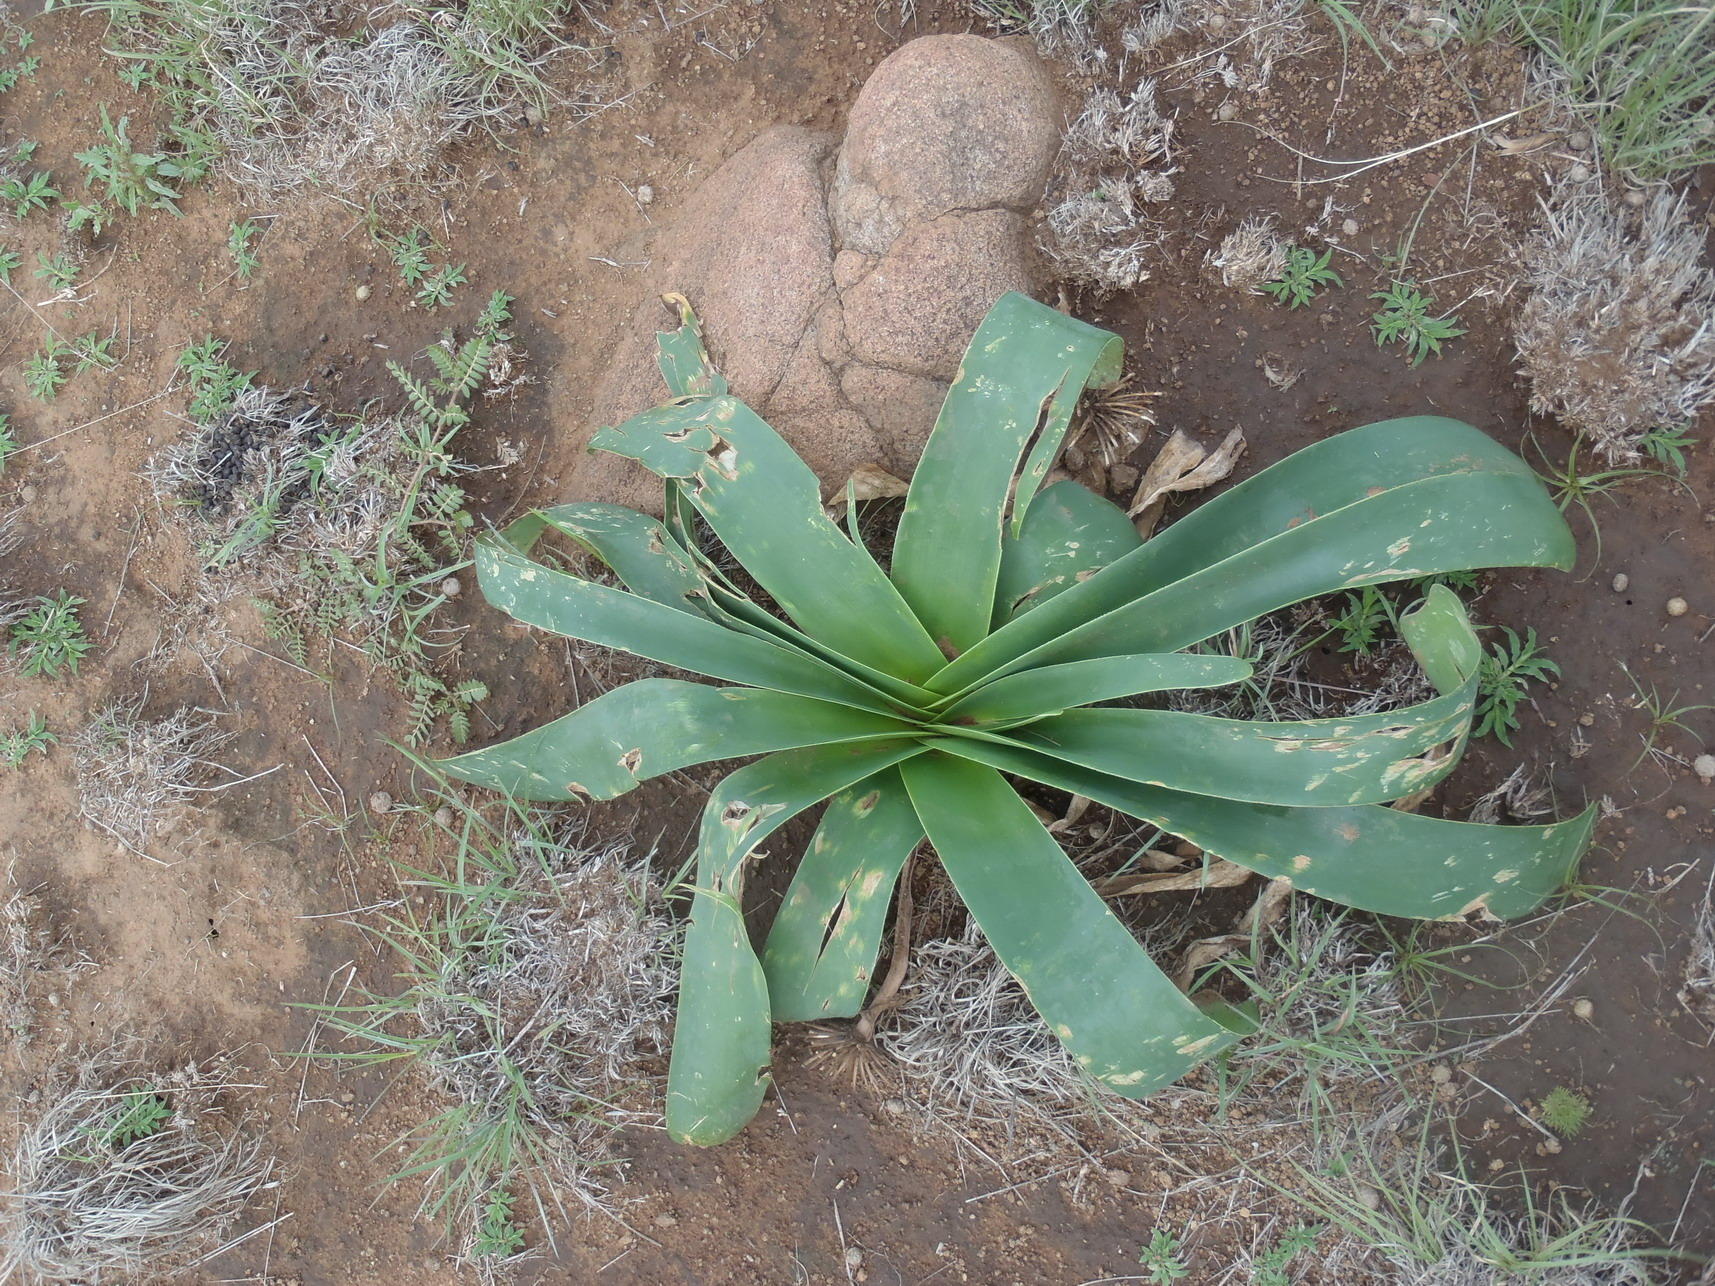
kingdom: Plantae
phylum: Tracheophyta
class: Liliopsida
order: Asparagales
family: Amaryllidaceae
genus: Ammocharis
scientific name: Ammocharis coranica
